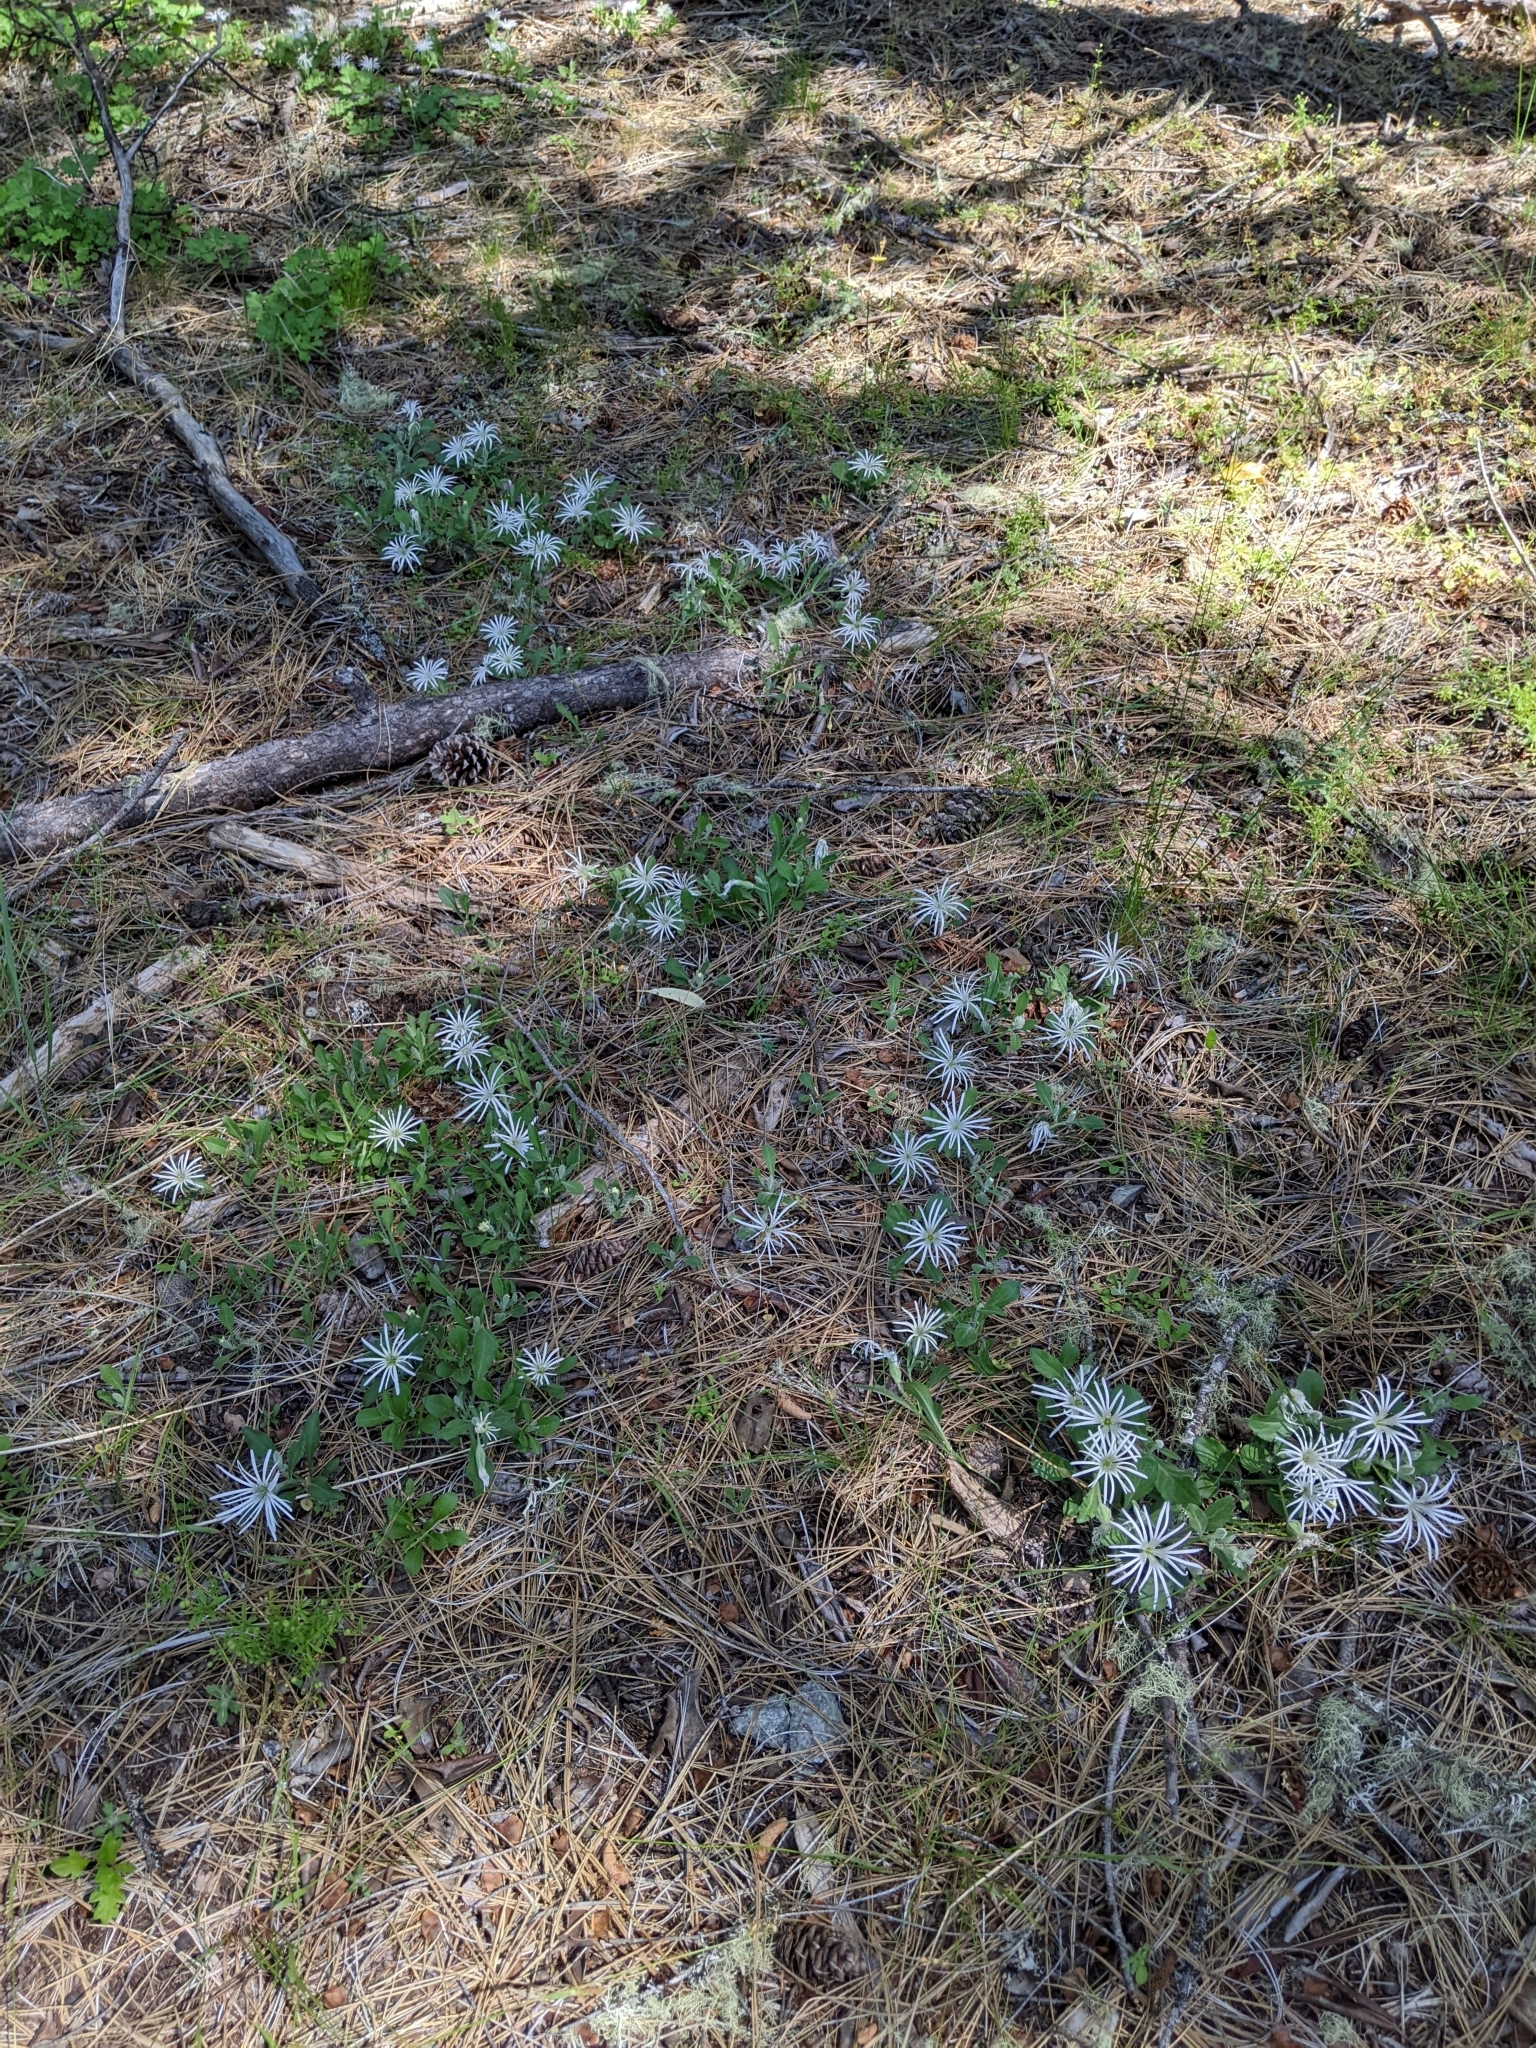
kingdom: Plantae
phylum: Tracheophyta
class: Magnoliopsida
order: Caryophyllales
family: Caryophyllaceae
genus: Silene
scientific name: Silene nelsonii
